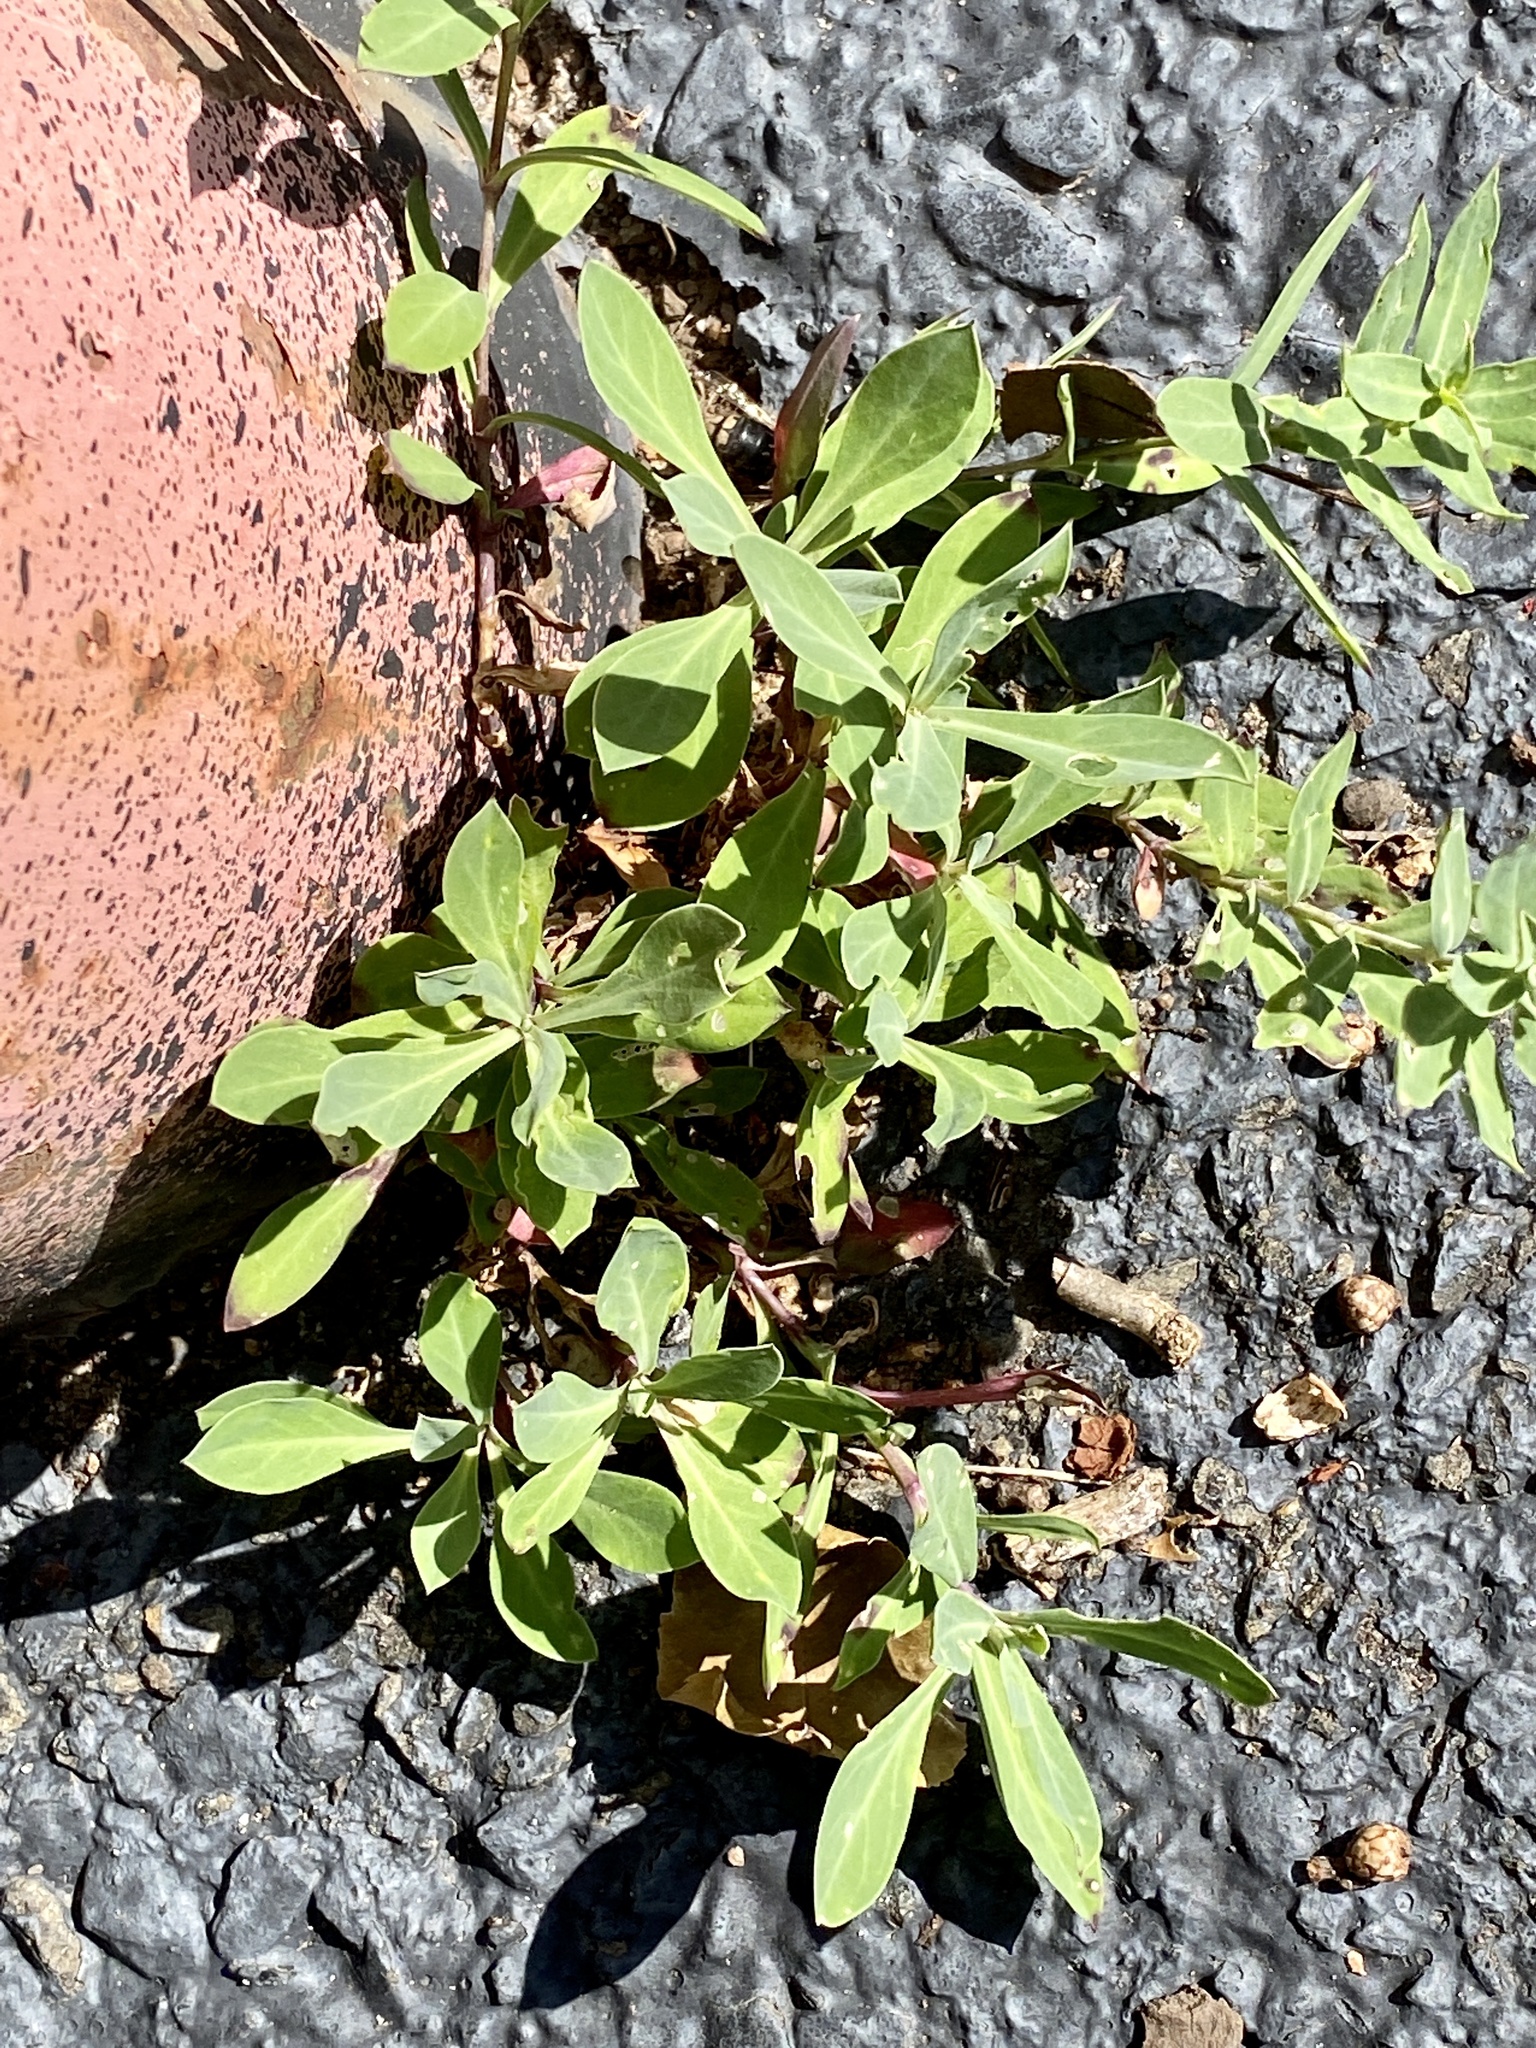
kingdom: Plantae
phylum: Tracheophyta
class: Magnoliopsida
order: Caryophyllales
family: Caryophyllaceae
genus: Silene
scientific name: Silene vulgaris
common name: Bladder campion
